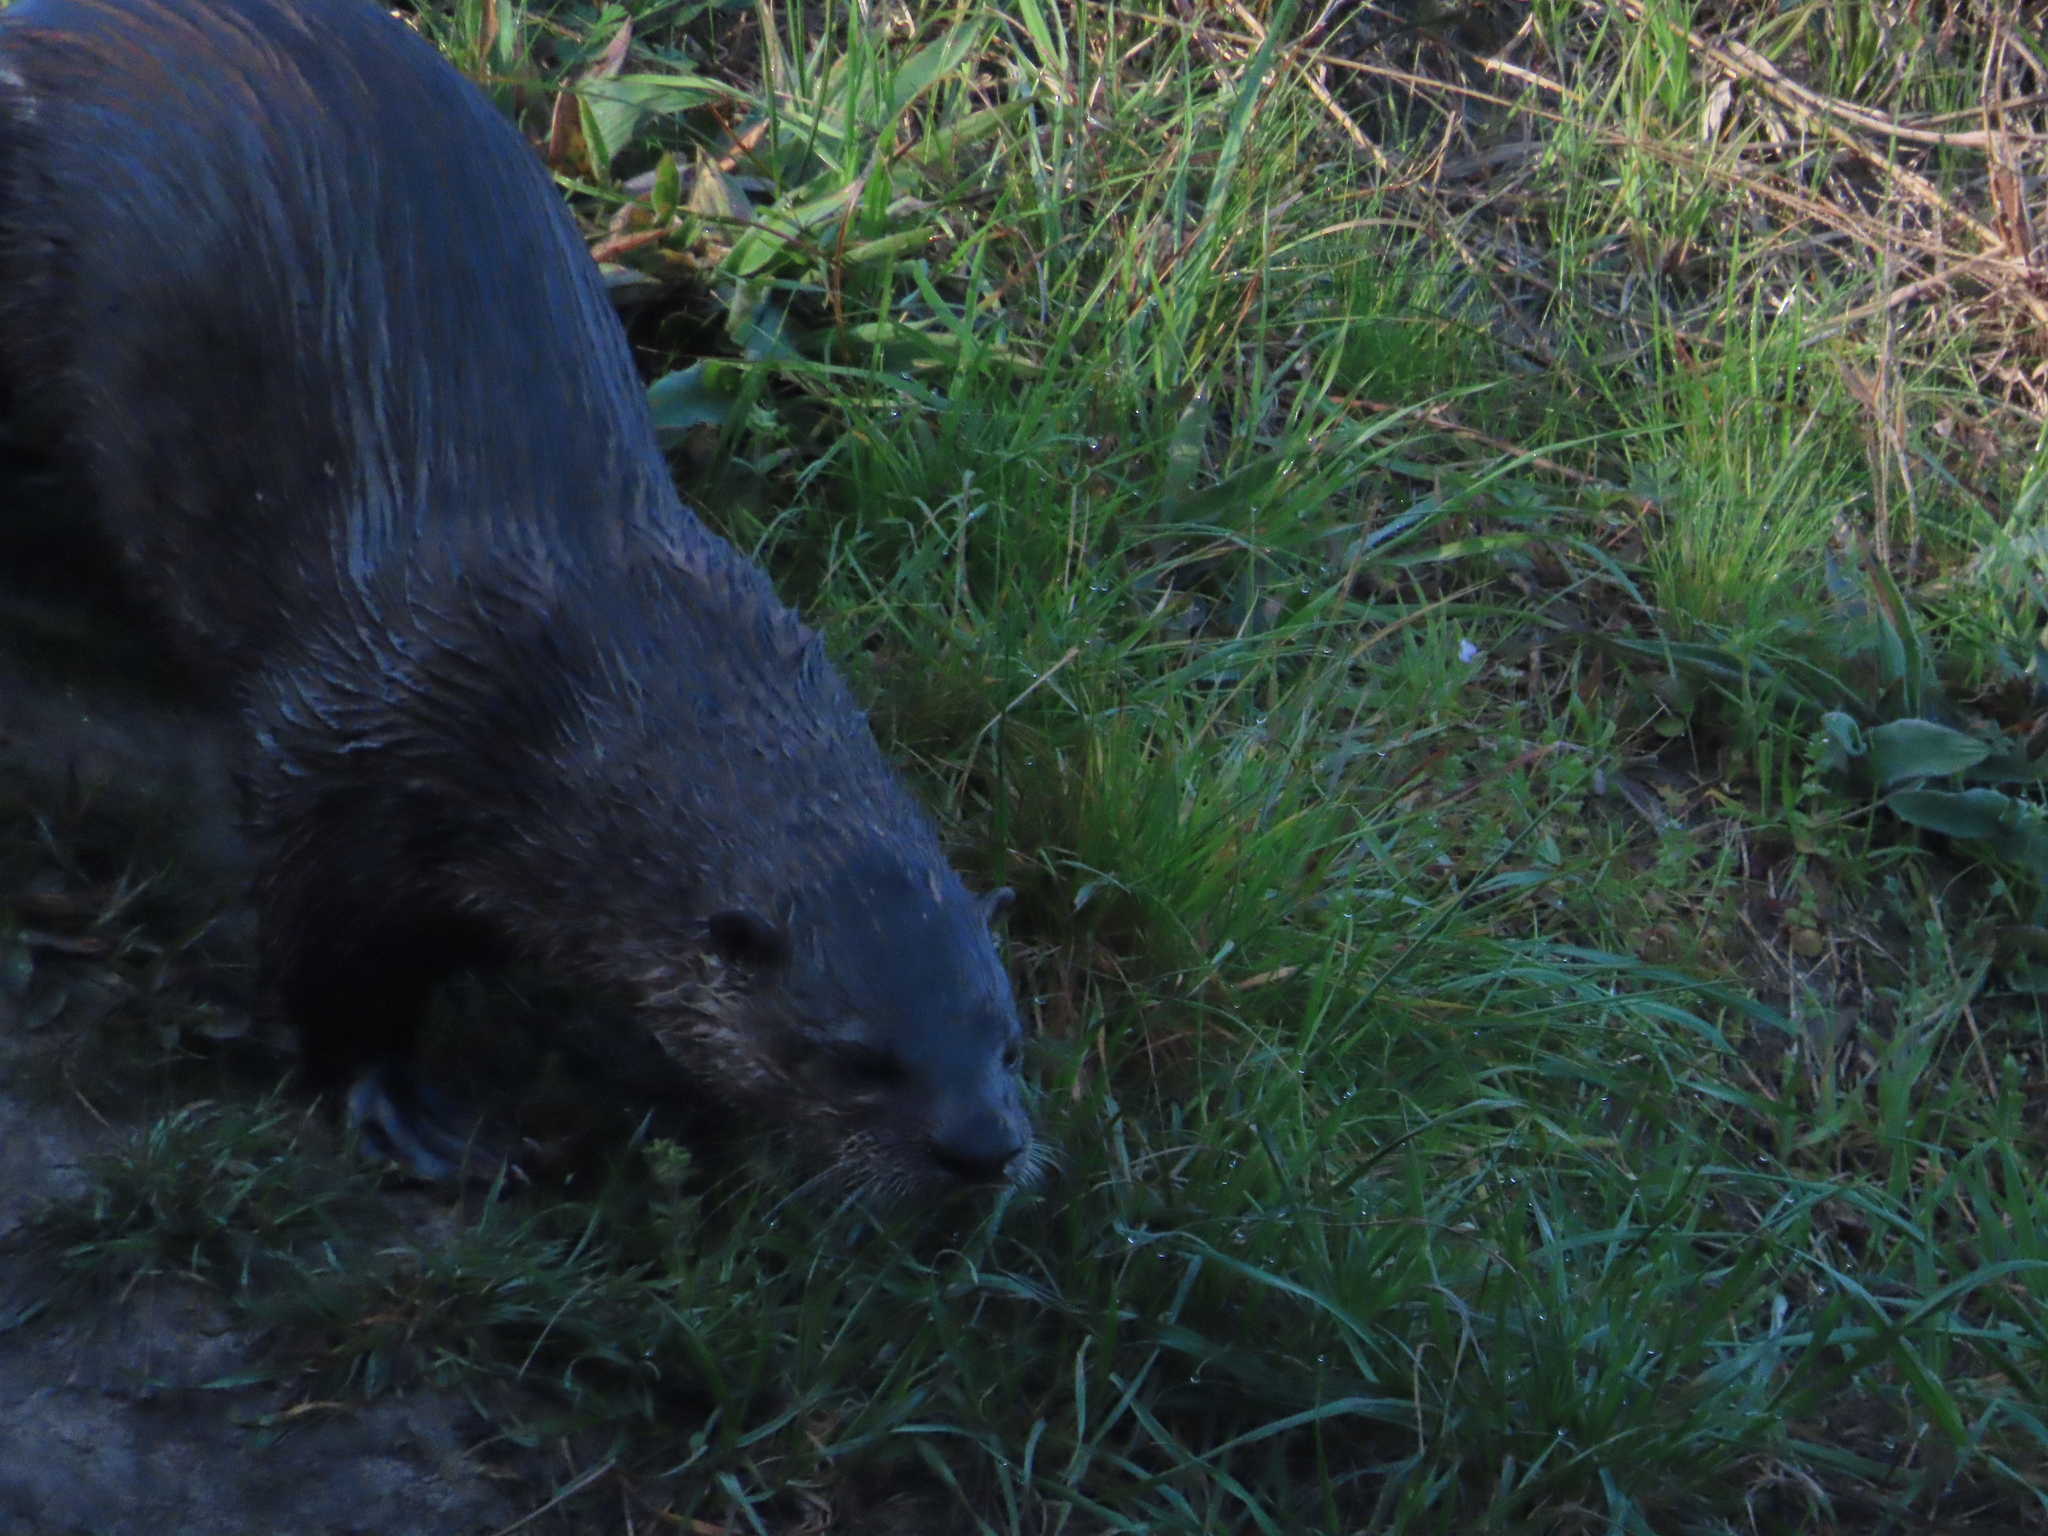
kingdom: Animalia
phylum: Chordata
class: Mammalia
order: Carnivora
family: Mustelidae
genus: Lontra
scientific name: Lontra canadensis
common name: North american river otter
